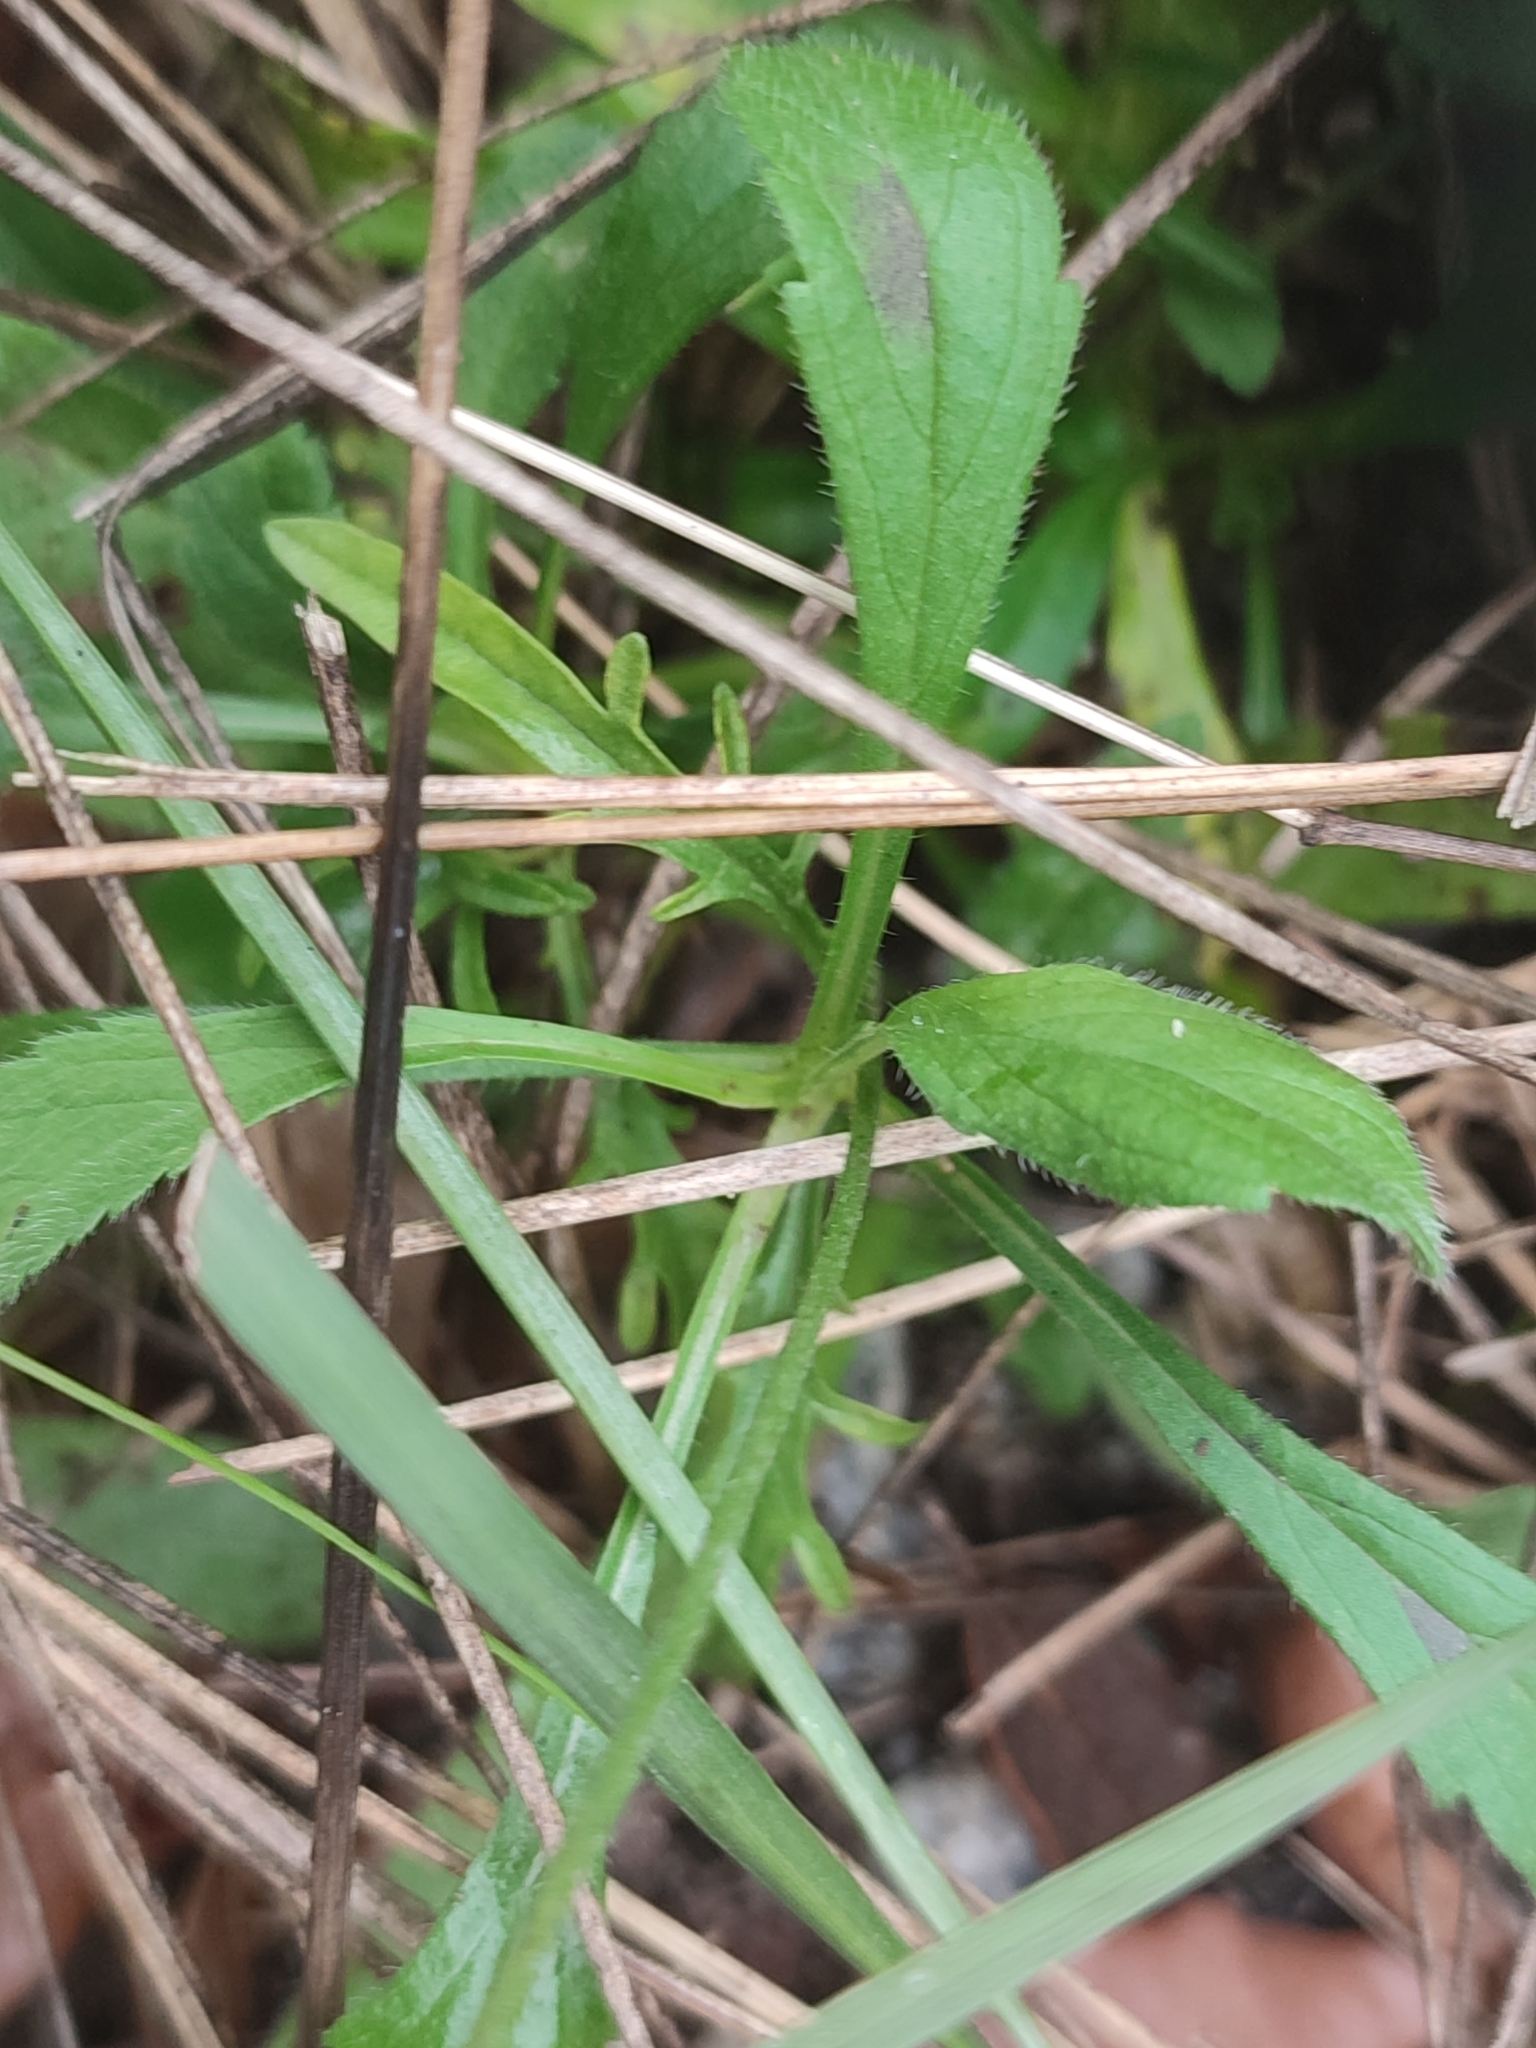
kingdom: Plantae
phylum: Tracheophyta
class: Magnoliopsida
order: Dipsacales
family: Caprifoliaceae
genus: Knautia
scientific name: Knautia arvensis
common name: Field scabiosa
